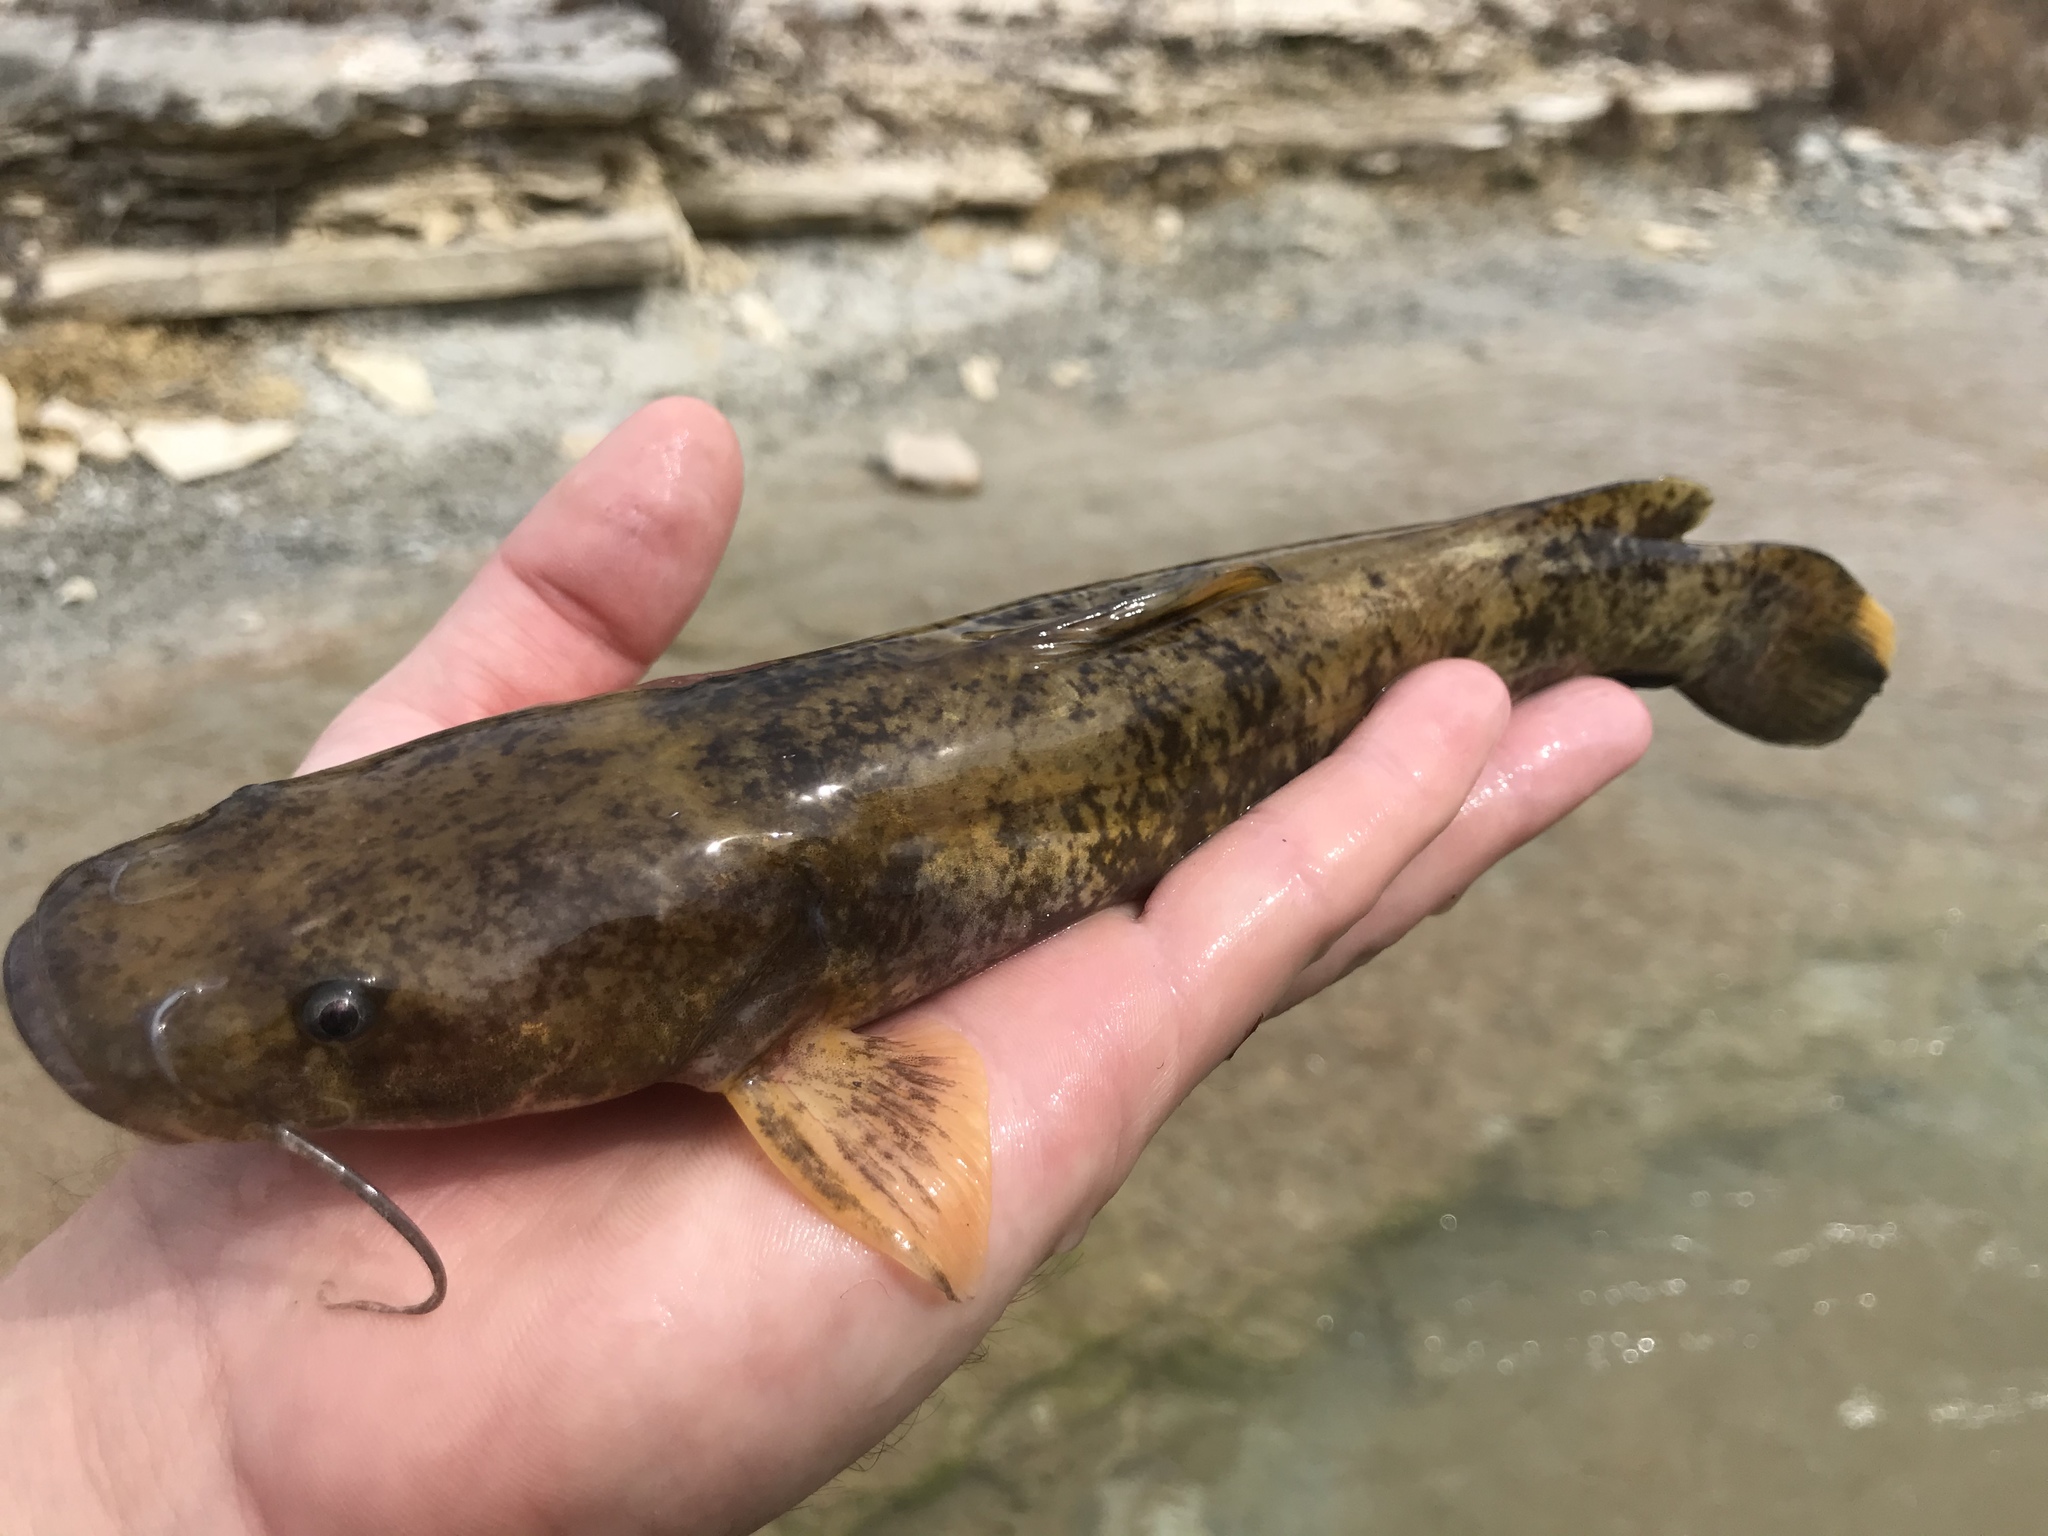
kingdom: Animalia
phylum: Chordata
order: Siluriformes
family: Ictaluridae
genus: Pylodictis
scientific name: Pylodictis olivaris
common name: Flathead catfish
